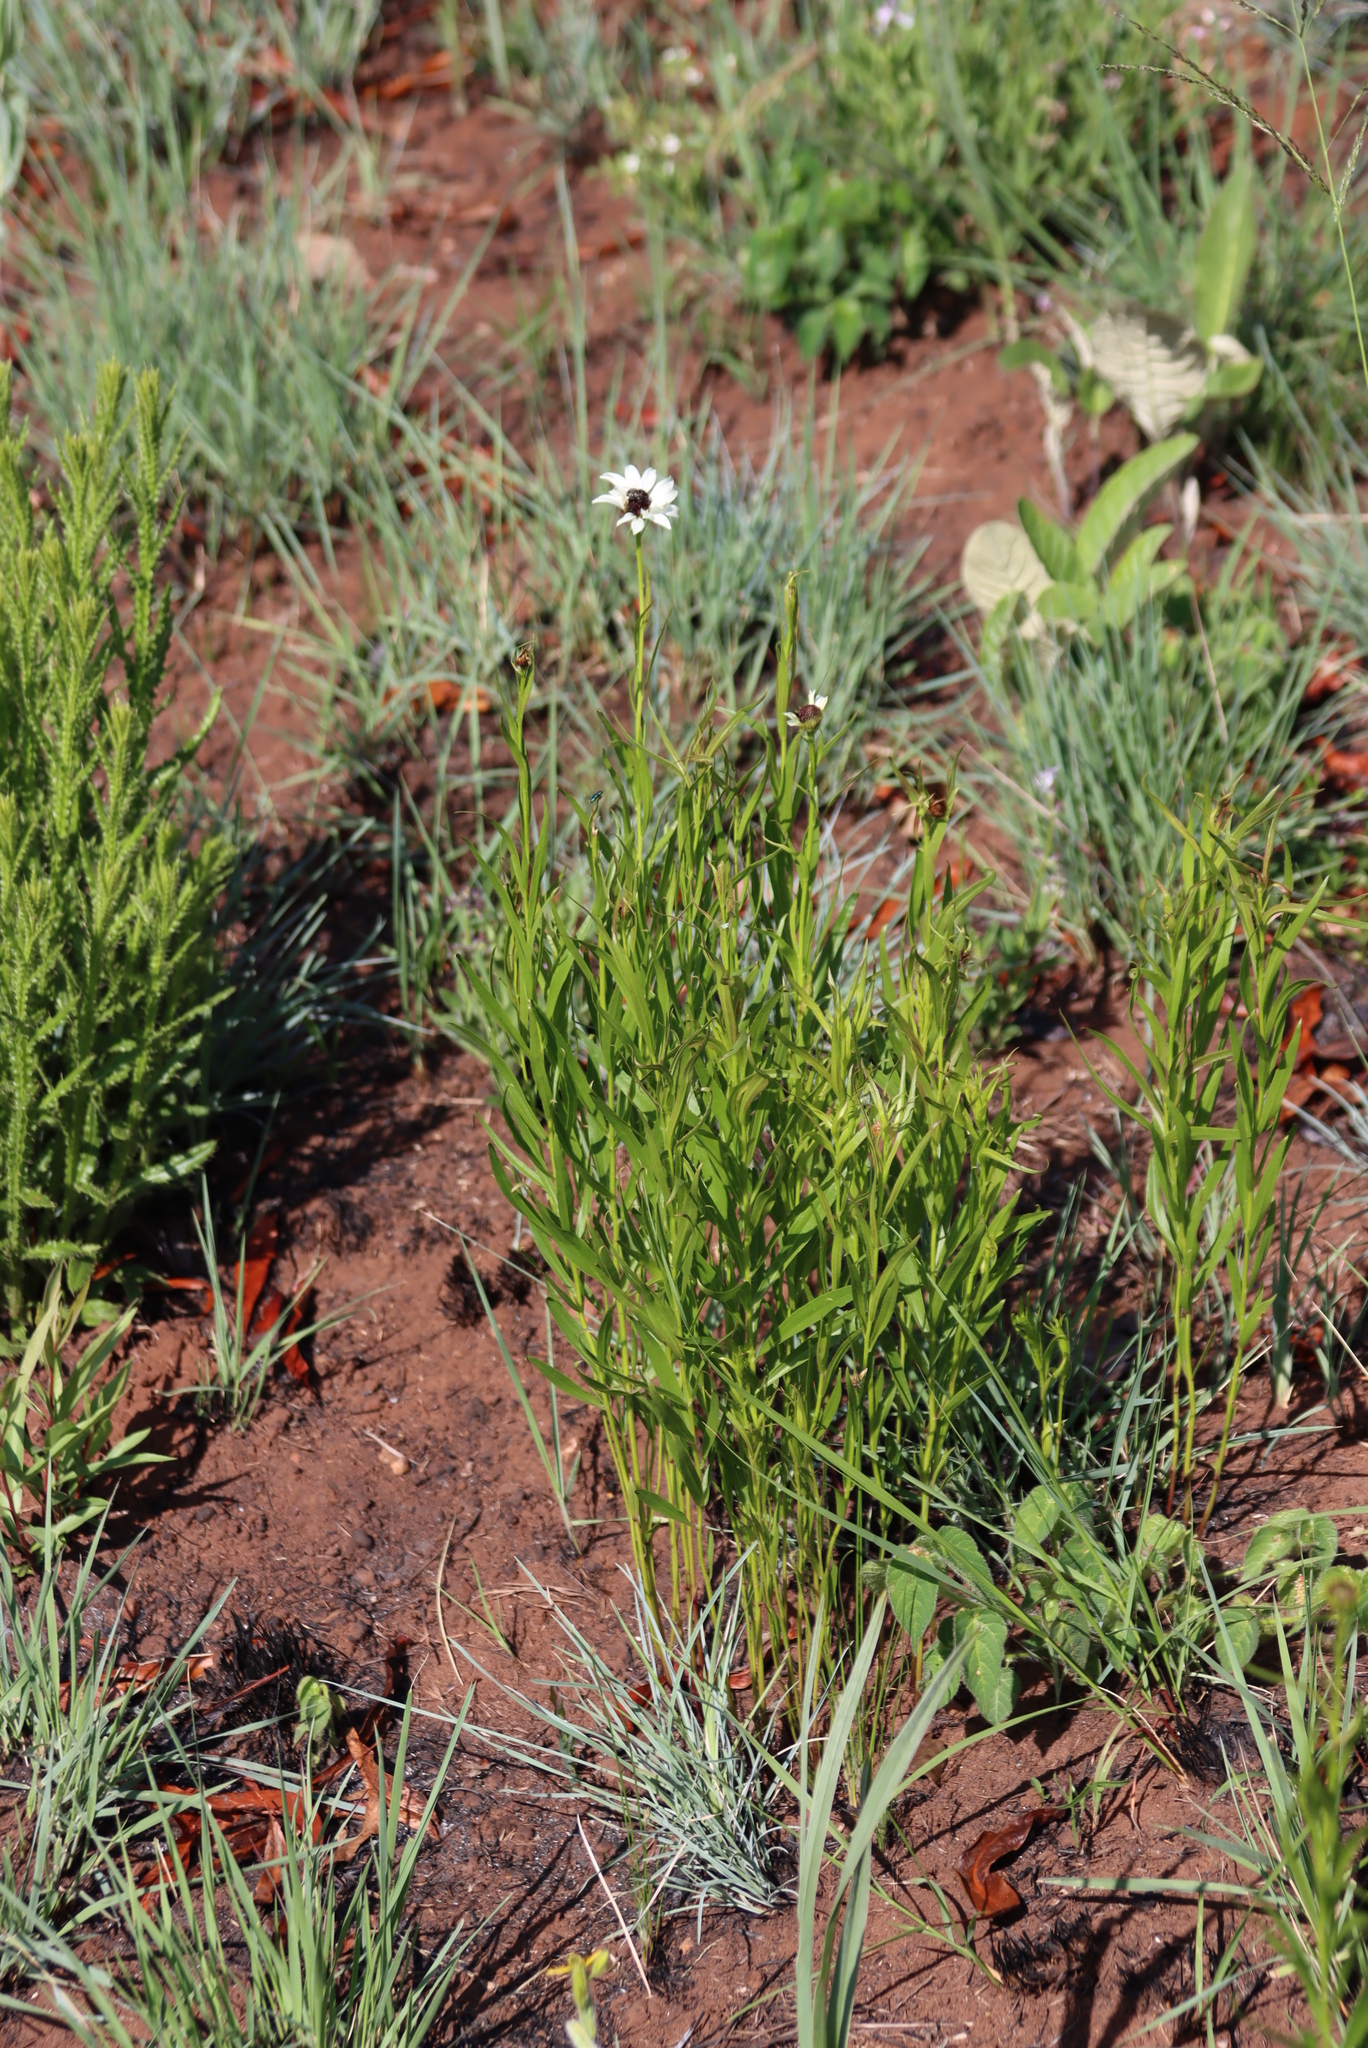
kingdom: Plantae
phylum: Tracheophyta
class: Magnoliopsida
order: Asterales
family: Asteraceae
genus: Callilepis
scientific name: Callilepis laureola
